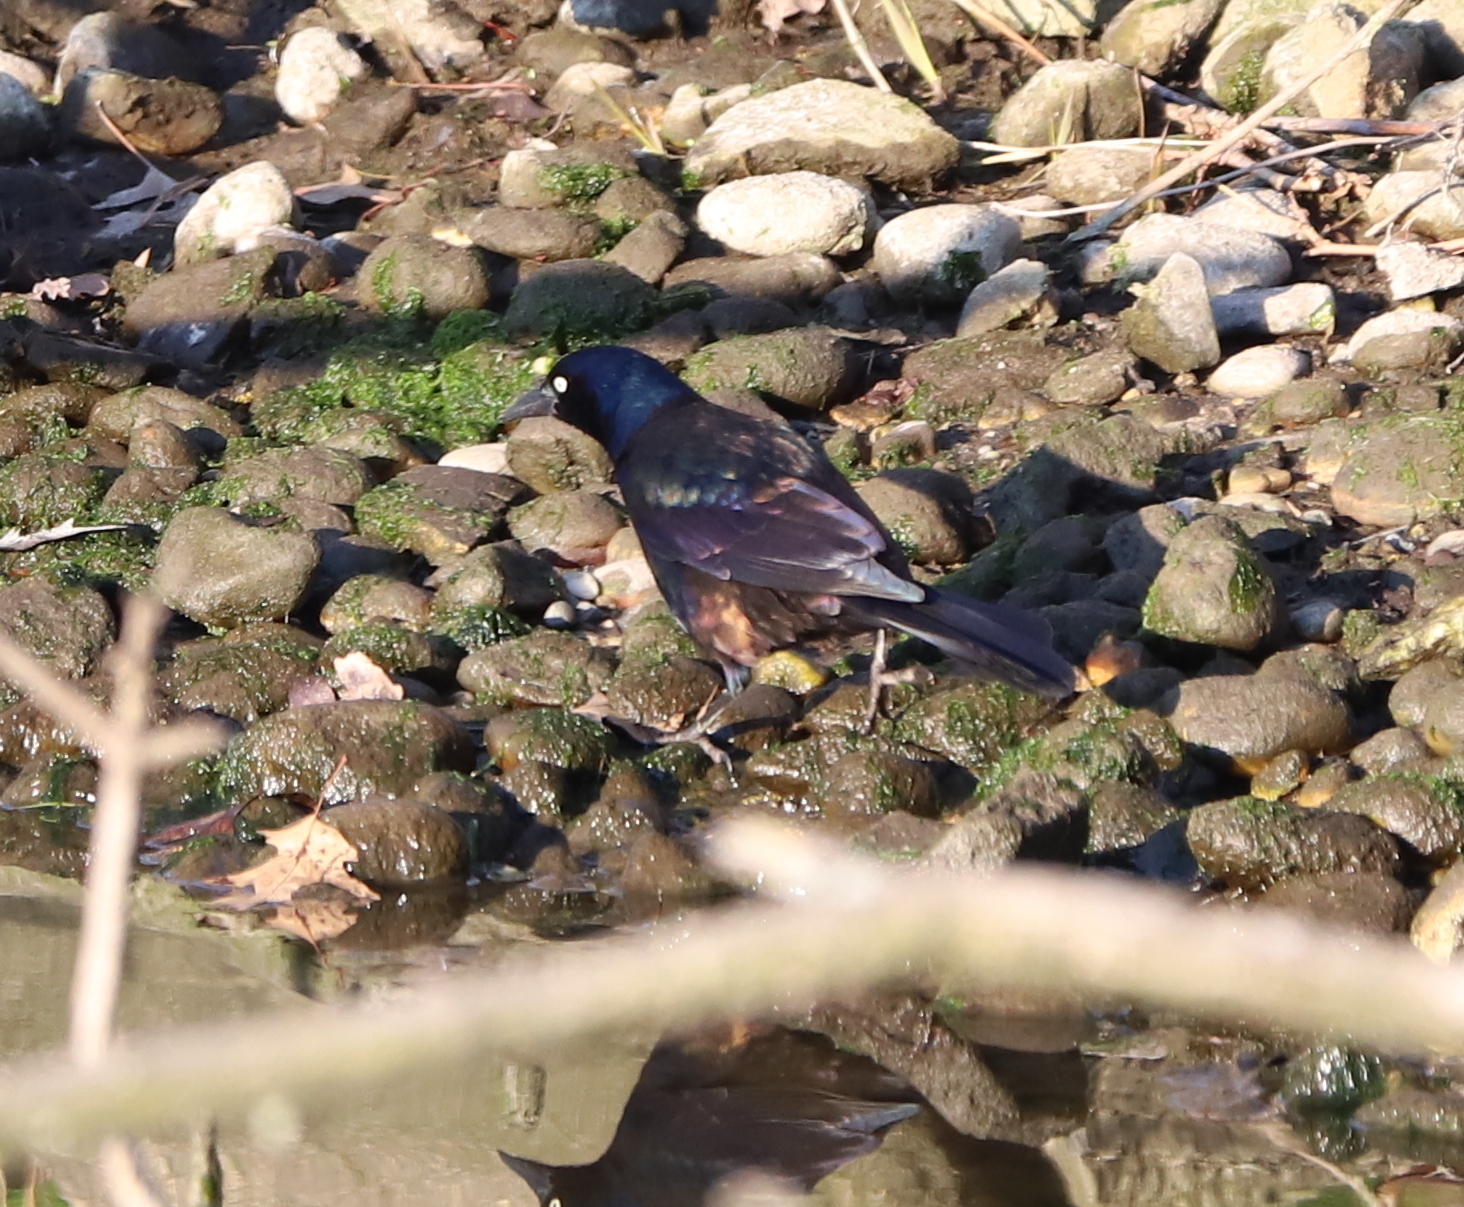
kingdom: Animalia
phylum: Chordata
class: Aves
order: Passeriformes
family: Icteridae
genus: Quiscalus
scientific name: Quiscalus quiscula
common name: Common grackle
